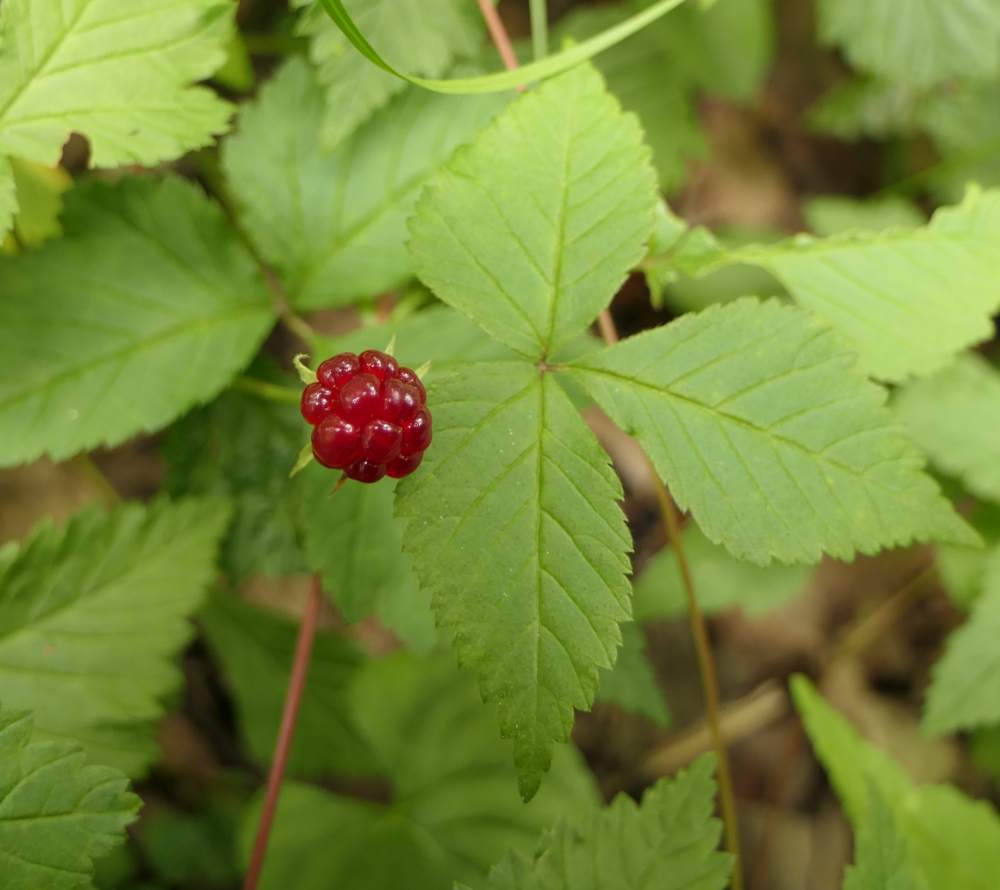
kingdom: Plantae
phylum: Tracheophyta
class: Magnoliopsida
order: Rosales
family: Rosaceae
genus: Rubus
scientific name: Rubus pubescens
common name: Dwarf raspberry
